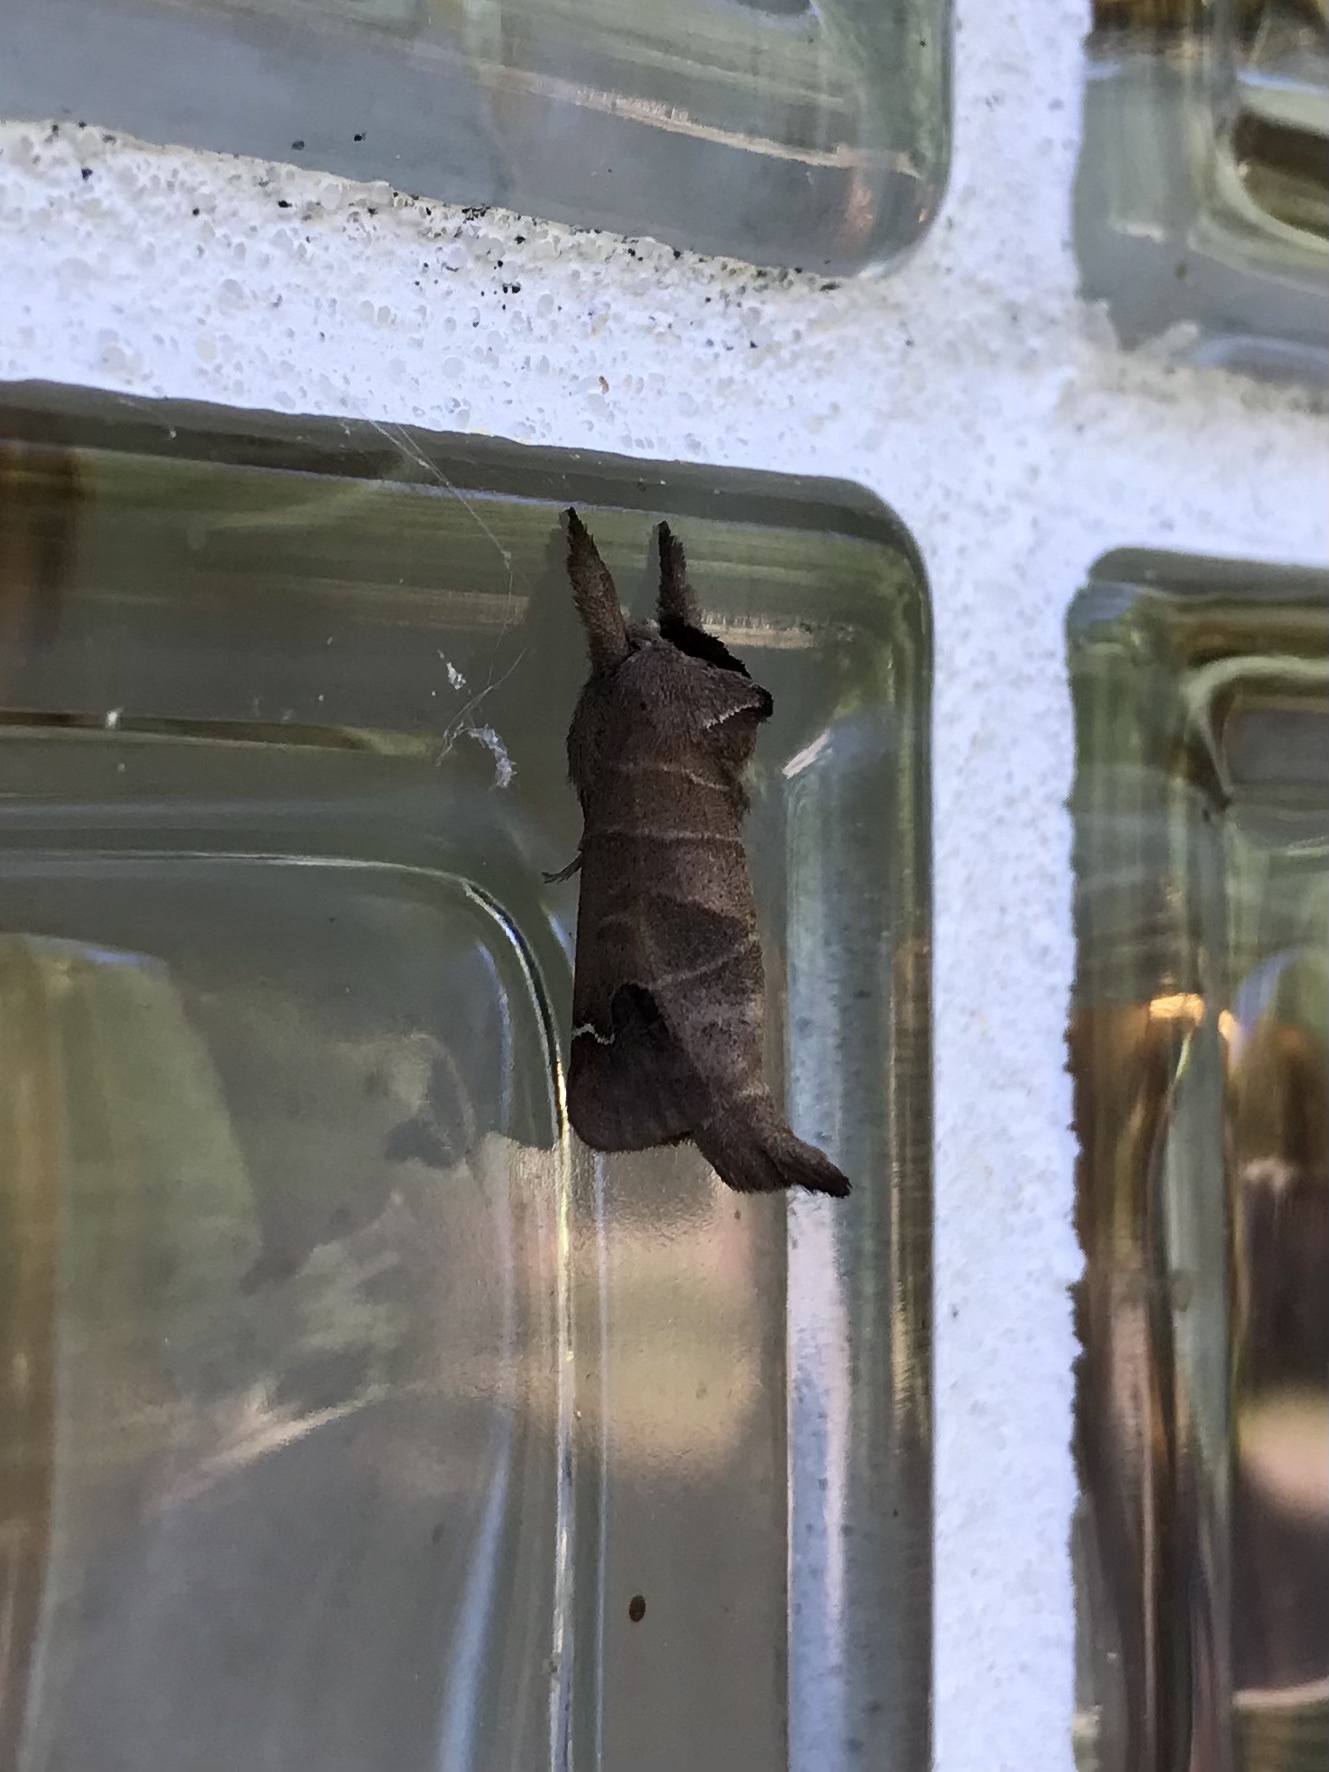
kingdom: Animalia
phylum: Arthropoda
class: Insecta
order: Lepidoptera
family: Notodontidae
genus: Clostera
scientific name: Clostera albosigma
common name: Sigmoid prominent
